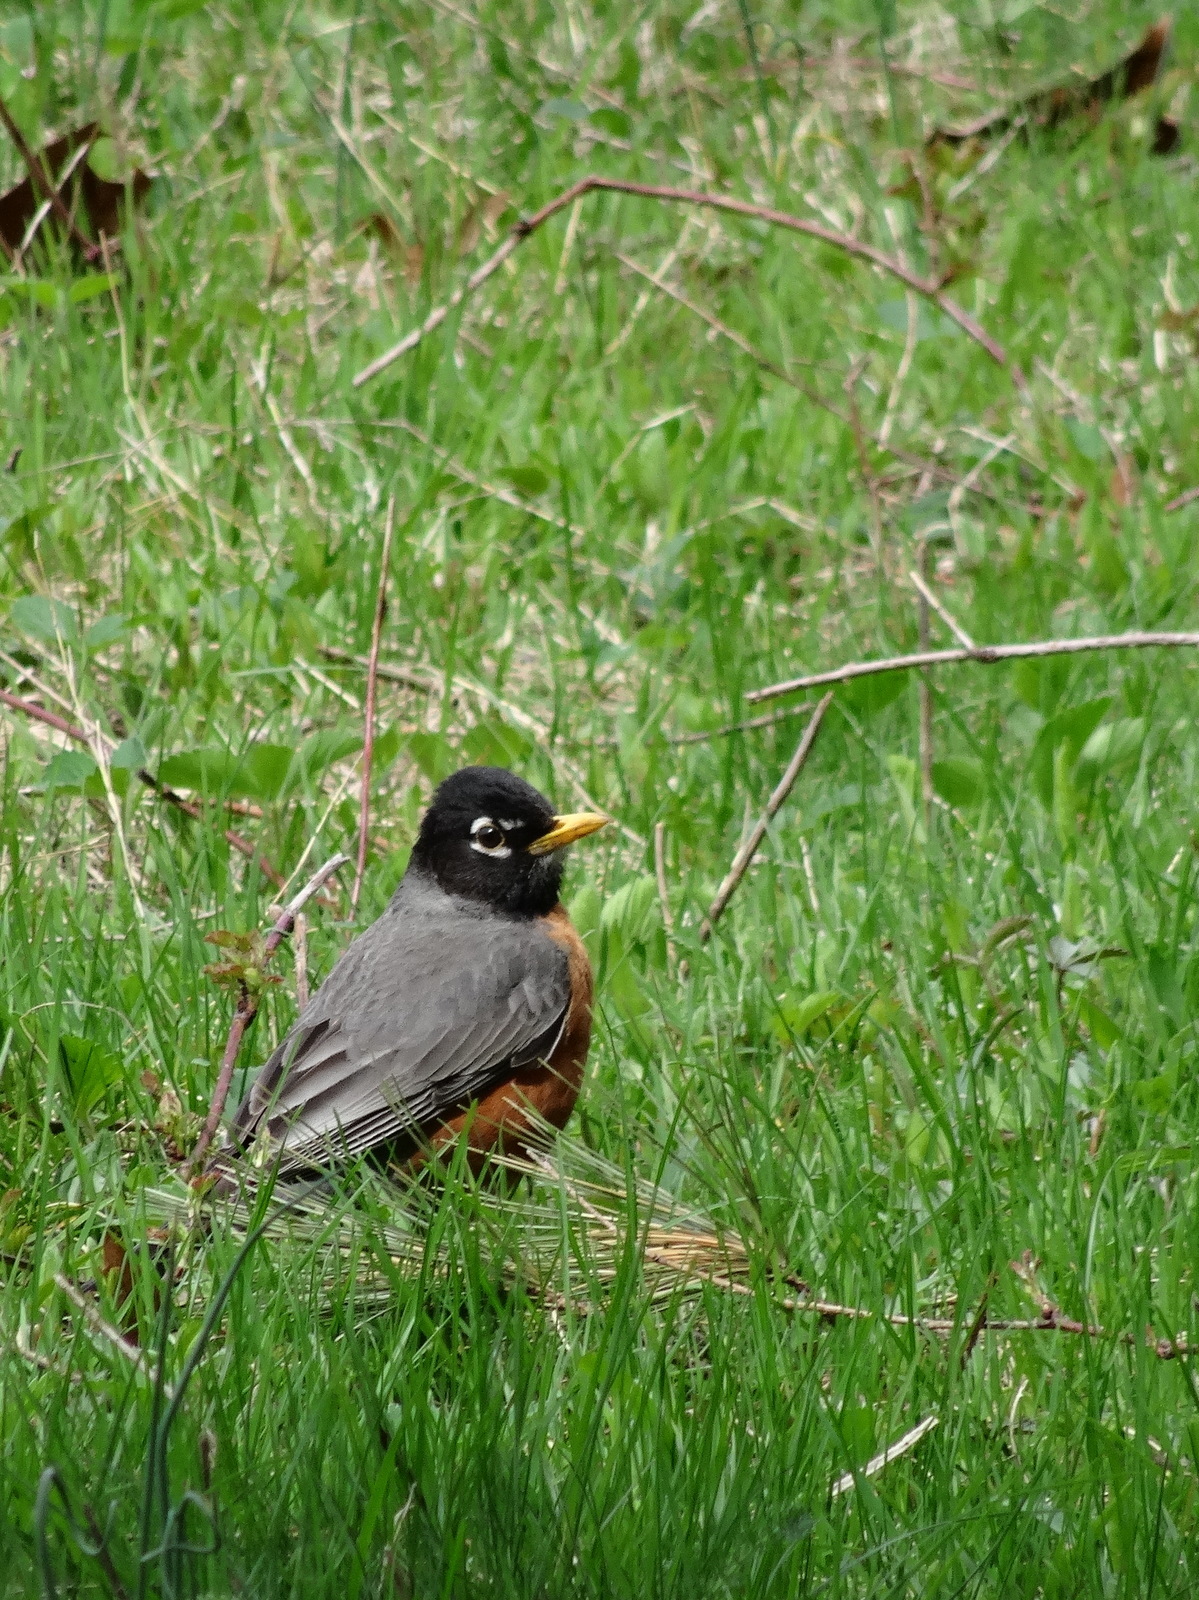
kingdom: Animalia
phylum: Chordata
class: Aves
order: Passeriformes
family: Turdidae
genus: Turdus
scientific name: Turdus migratorius
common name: American robin
